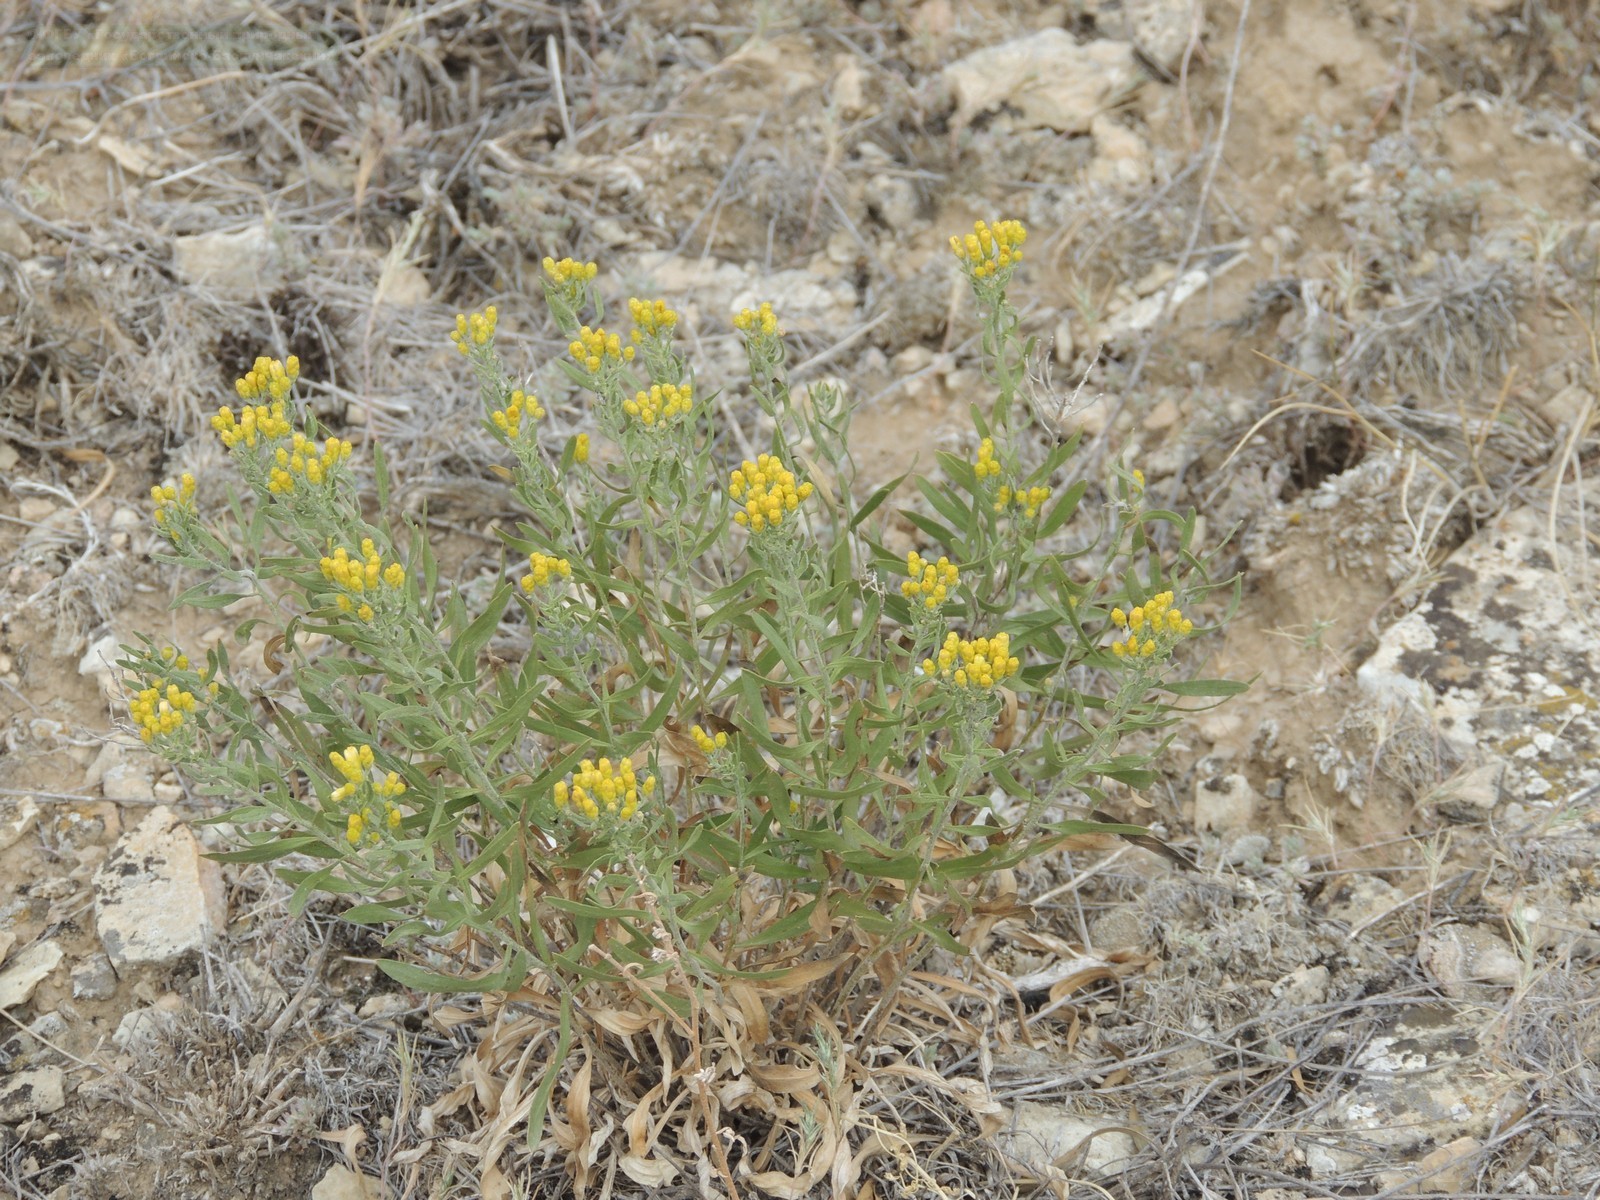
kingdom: Plantae
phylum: Tracheophyta
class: Magnoliopsida
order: Asterales
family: Asteraceae
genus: Galatella
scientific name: Galatella sedifolia
